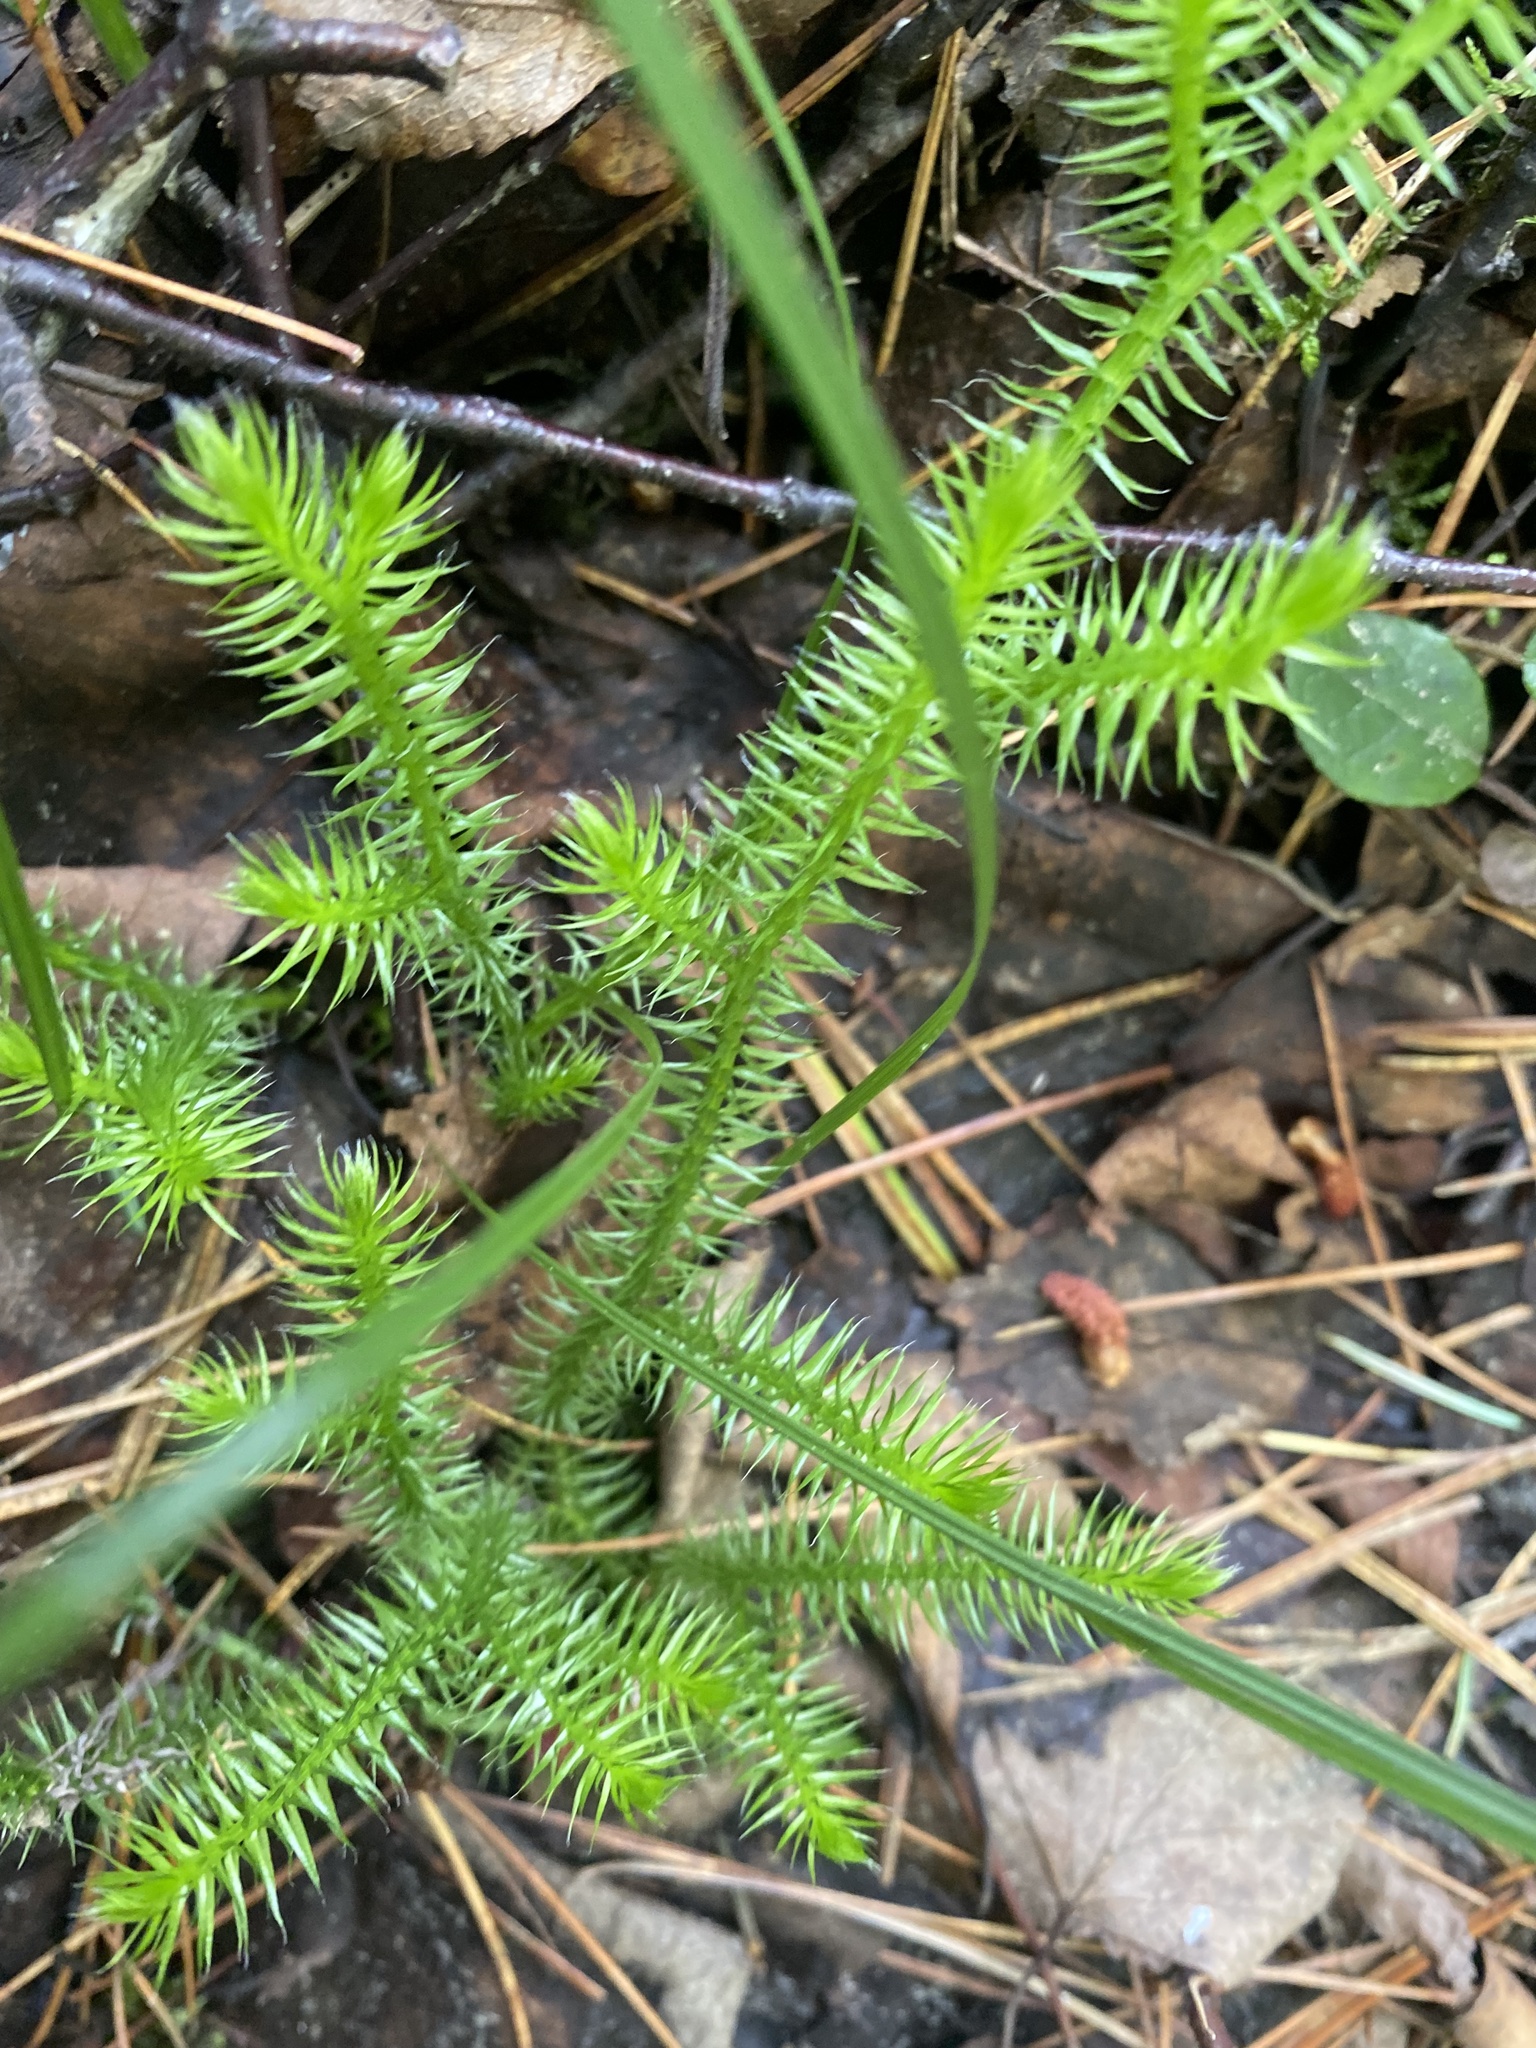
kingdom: Plantae
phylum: Tracheophyta
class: Lycopodiopsida
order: Lycopodiales
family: Lycopodiaceae
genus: Lycopodium
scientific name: Lycopodium clavatum
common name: Stag's-horn clubmoss
